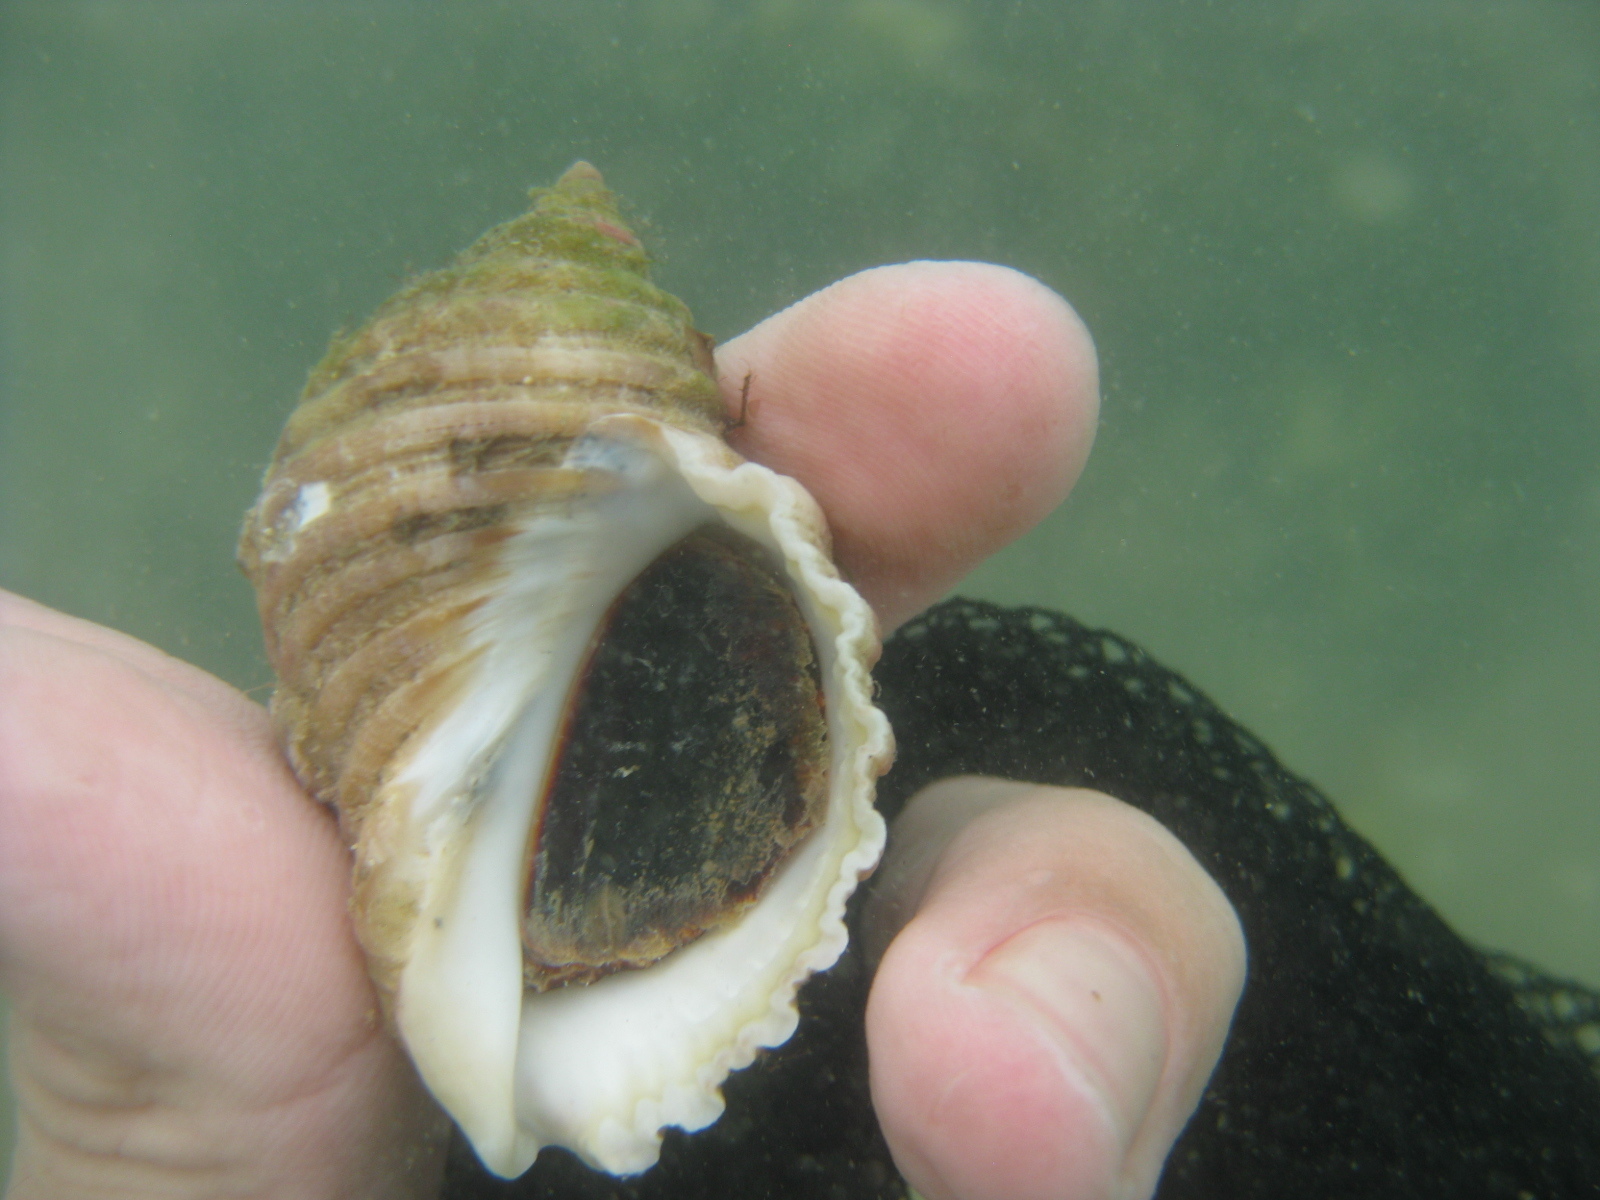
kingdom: Animalia
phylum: Mollusca
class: Gastropoda
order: Neogastropoda
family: Muricidae
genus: Dicathais
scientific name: Dicathais orbita
